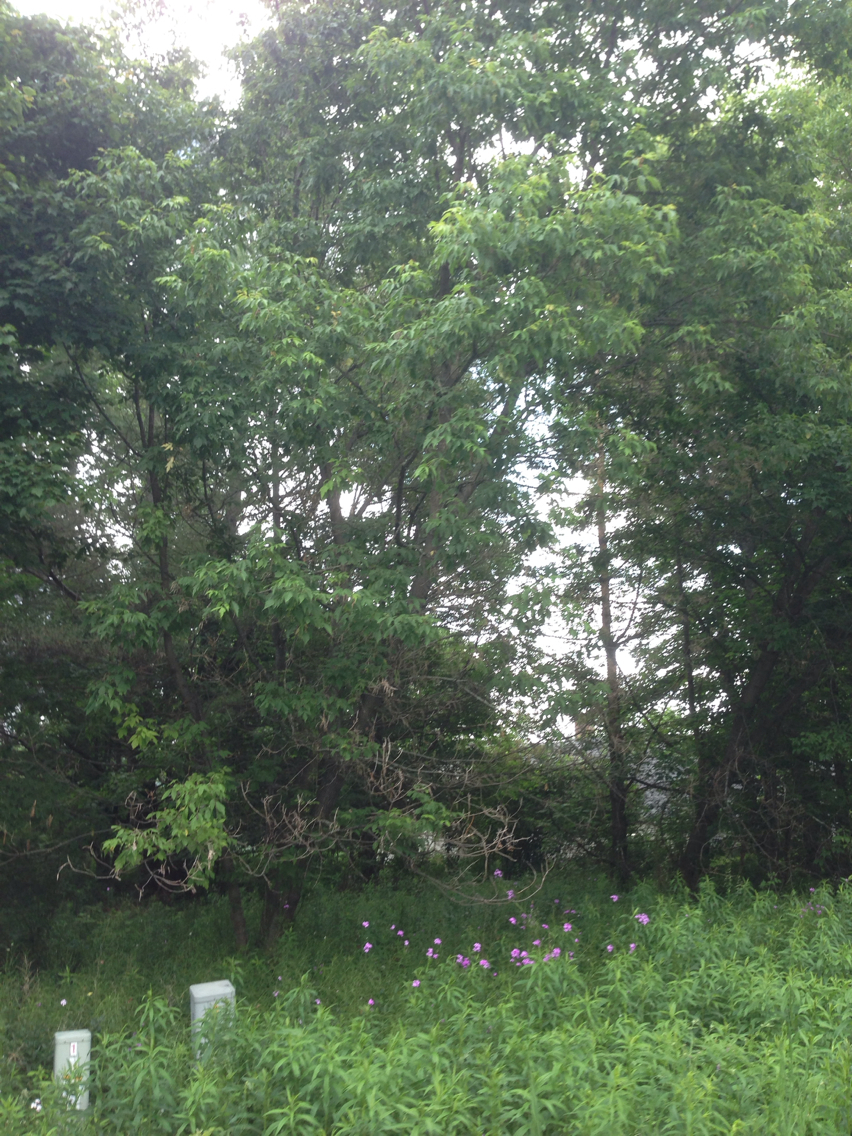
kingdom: Plantae
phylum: Tracheophyta
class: Magnoliopsida
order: Sapindales
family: Sapindaceae
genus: Acer
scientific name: Acer negundo
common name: Ashleaf maple
